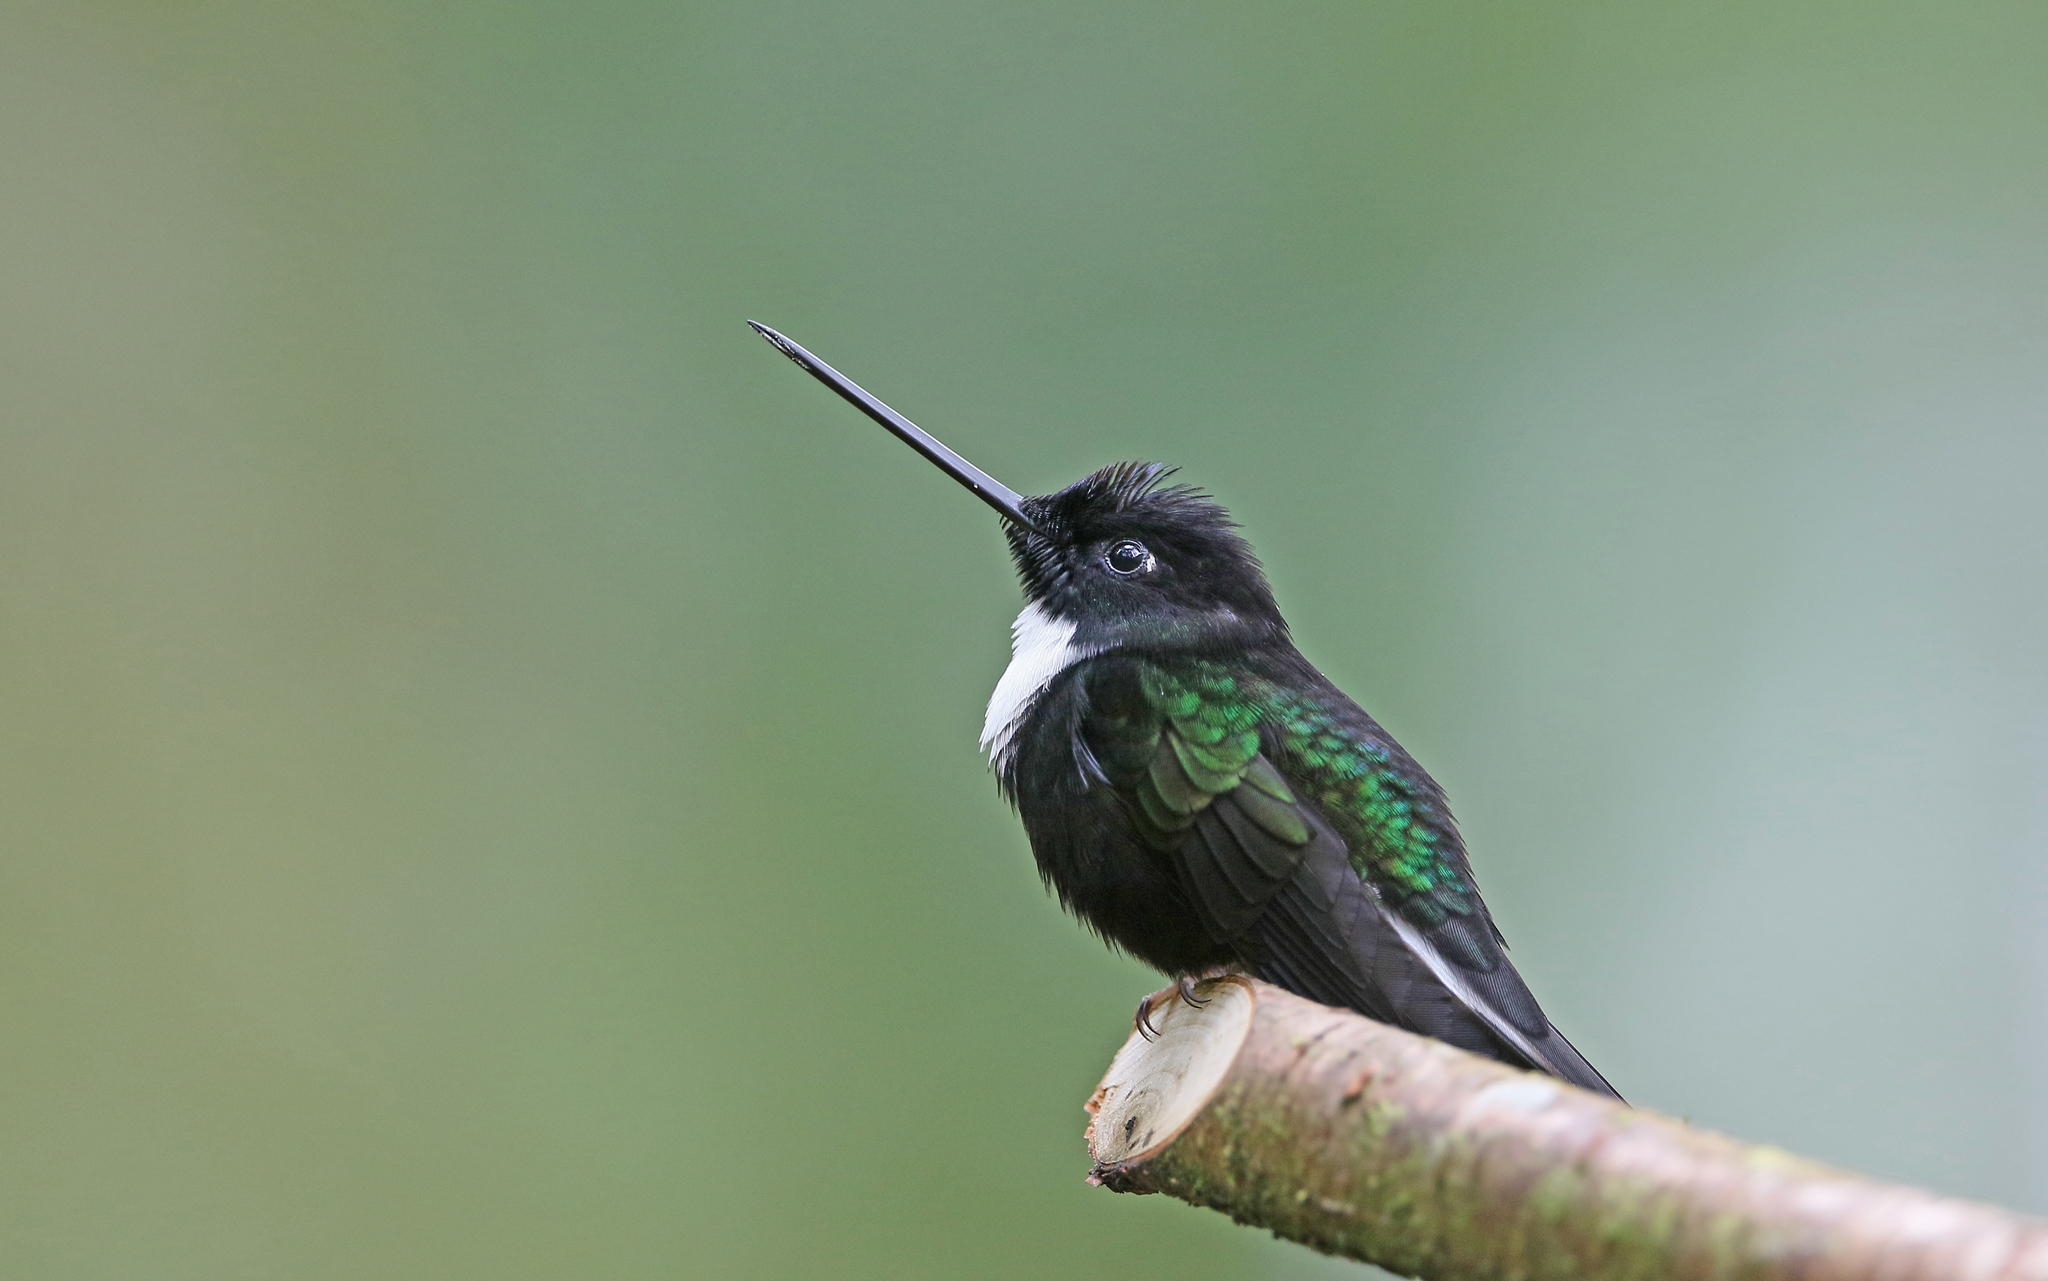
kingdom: Animalia
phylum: Chordata
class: Aves
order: Apodiformes
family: Trochilidae
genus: Coeligena
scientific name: Coeligena torquata
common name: Collared inca
